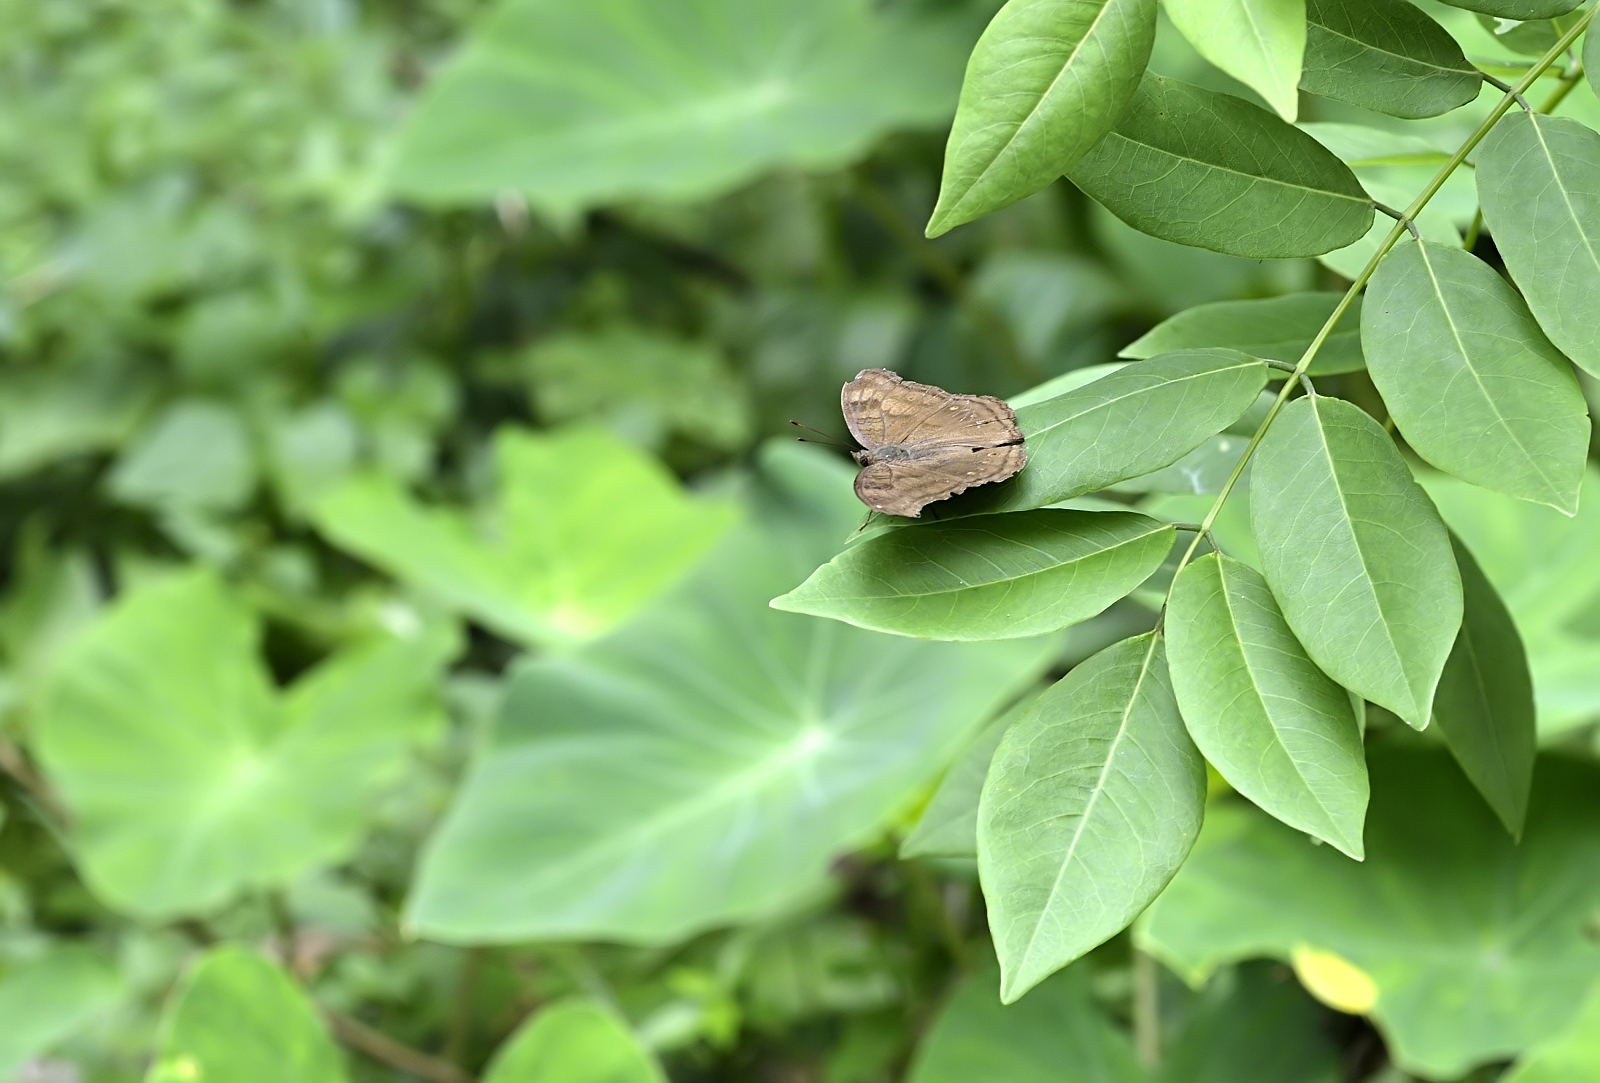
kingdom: Animalia
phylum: Arthropoda
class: Insecta
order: Lepidoptera
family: Nymphalidae
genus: Junonia
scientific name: Junonia iphita
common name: Chocolate pansy
